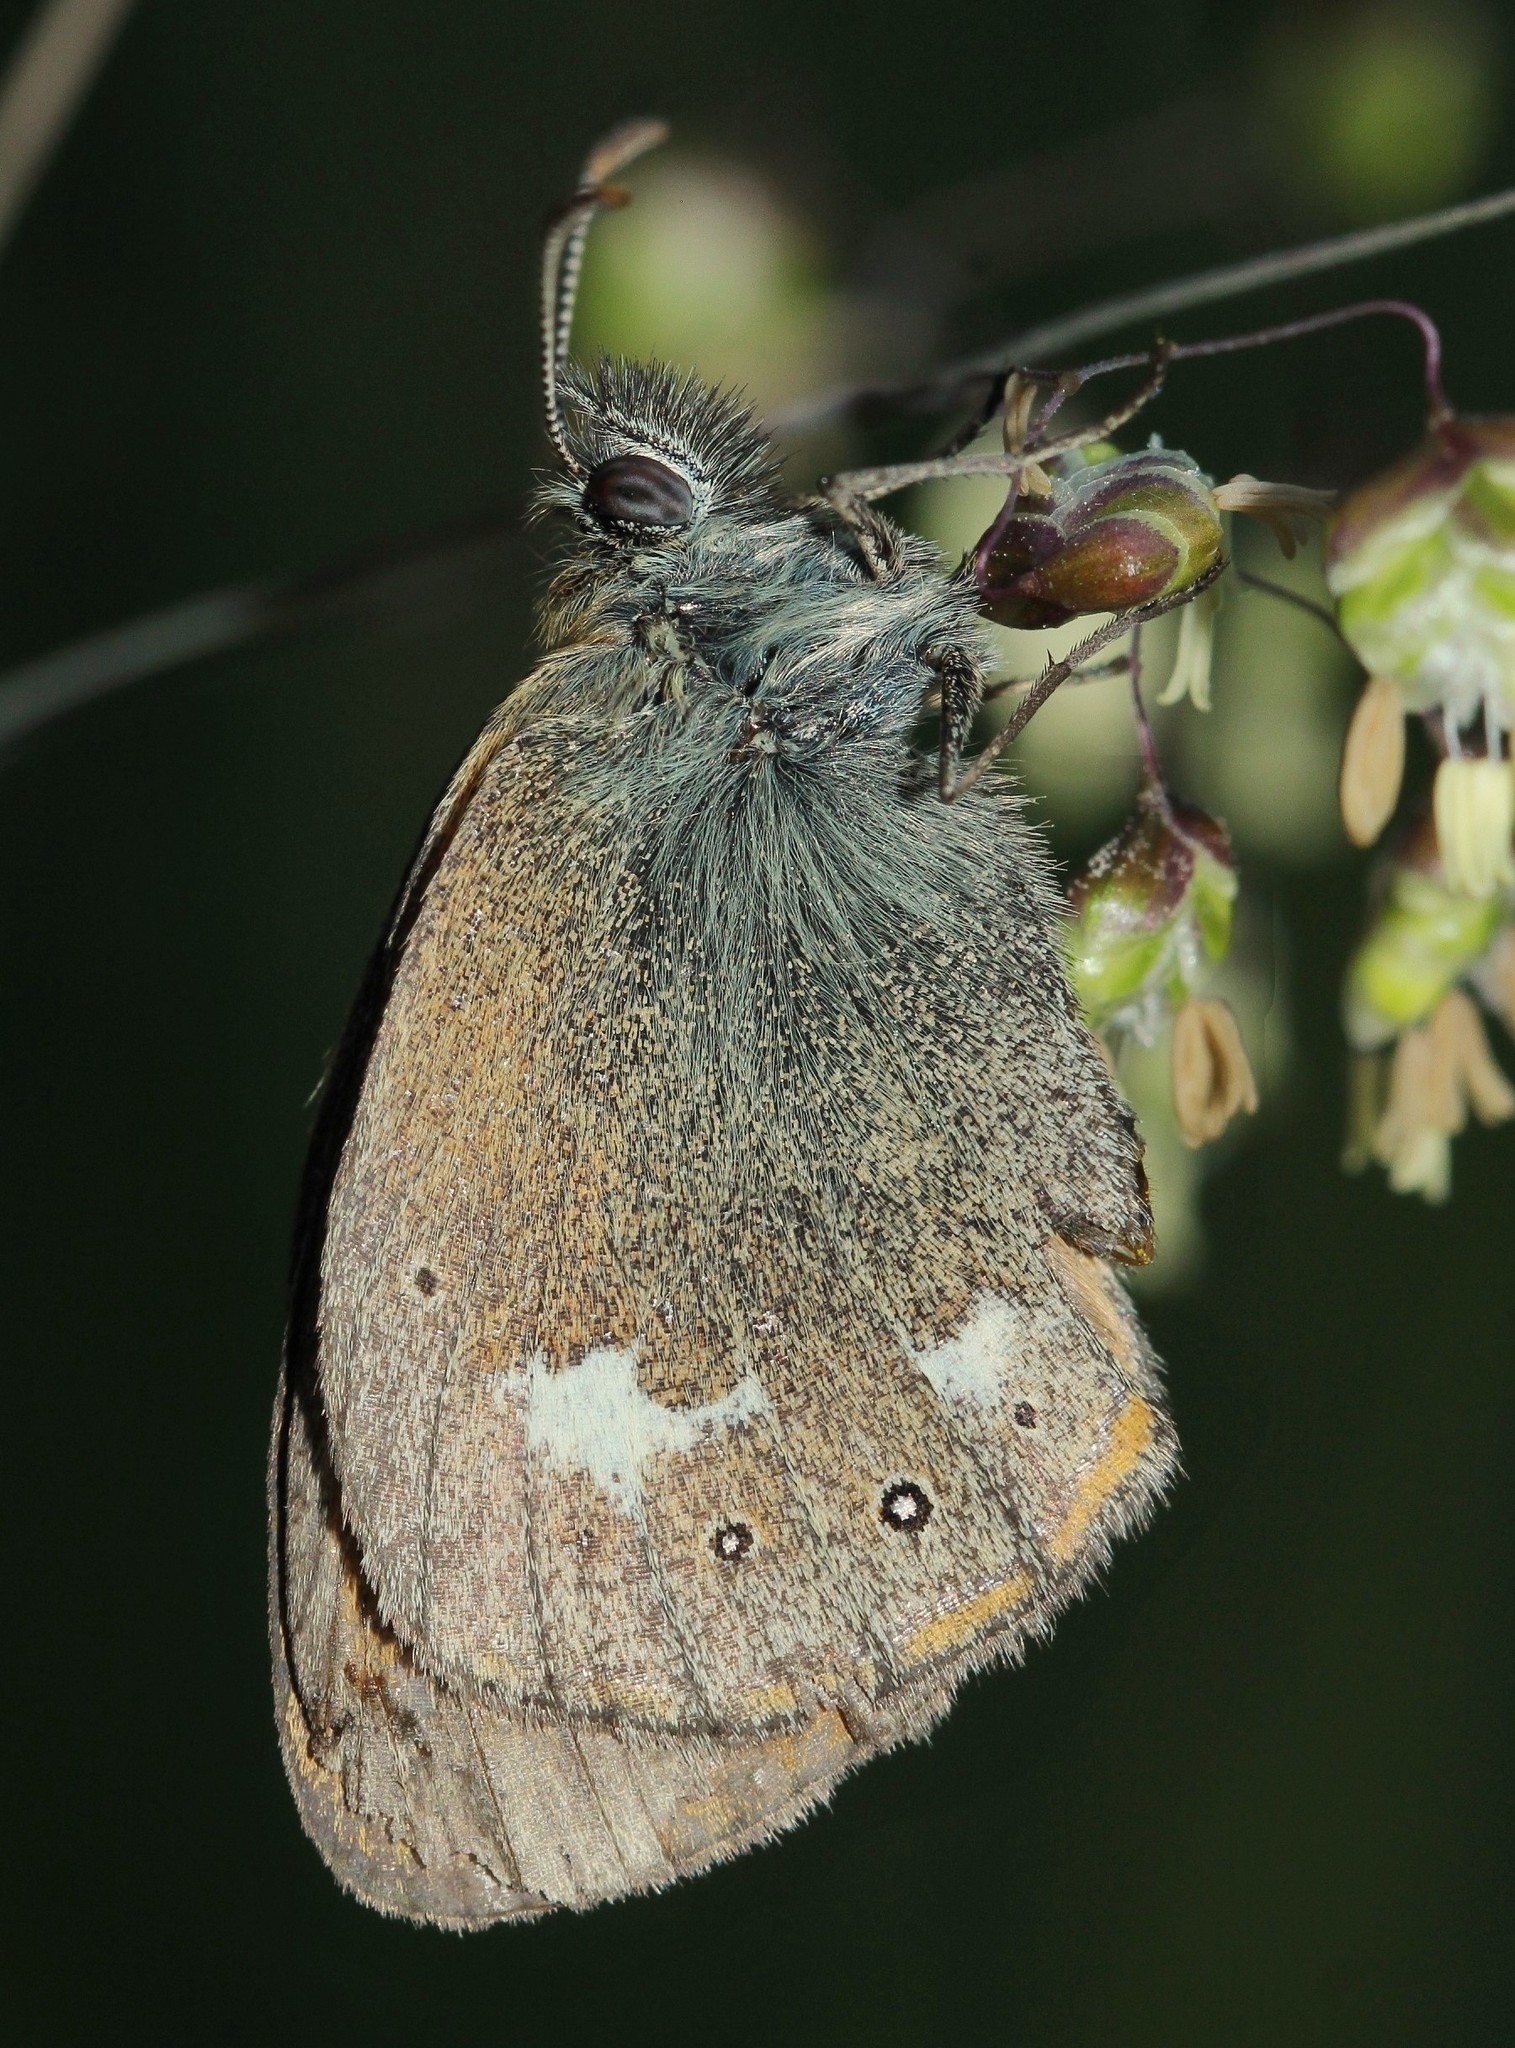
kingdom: Animalia
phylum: Arthropoda
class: Insecta
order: Lepidoptera
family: Nymphalidae
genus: Coenonympha
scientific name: Coenonympha iphis
